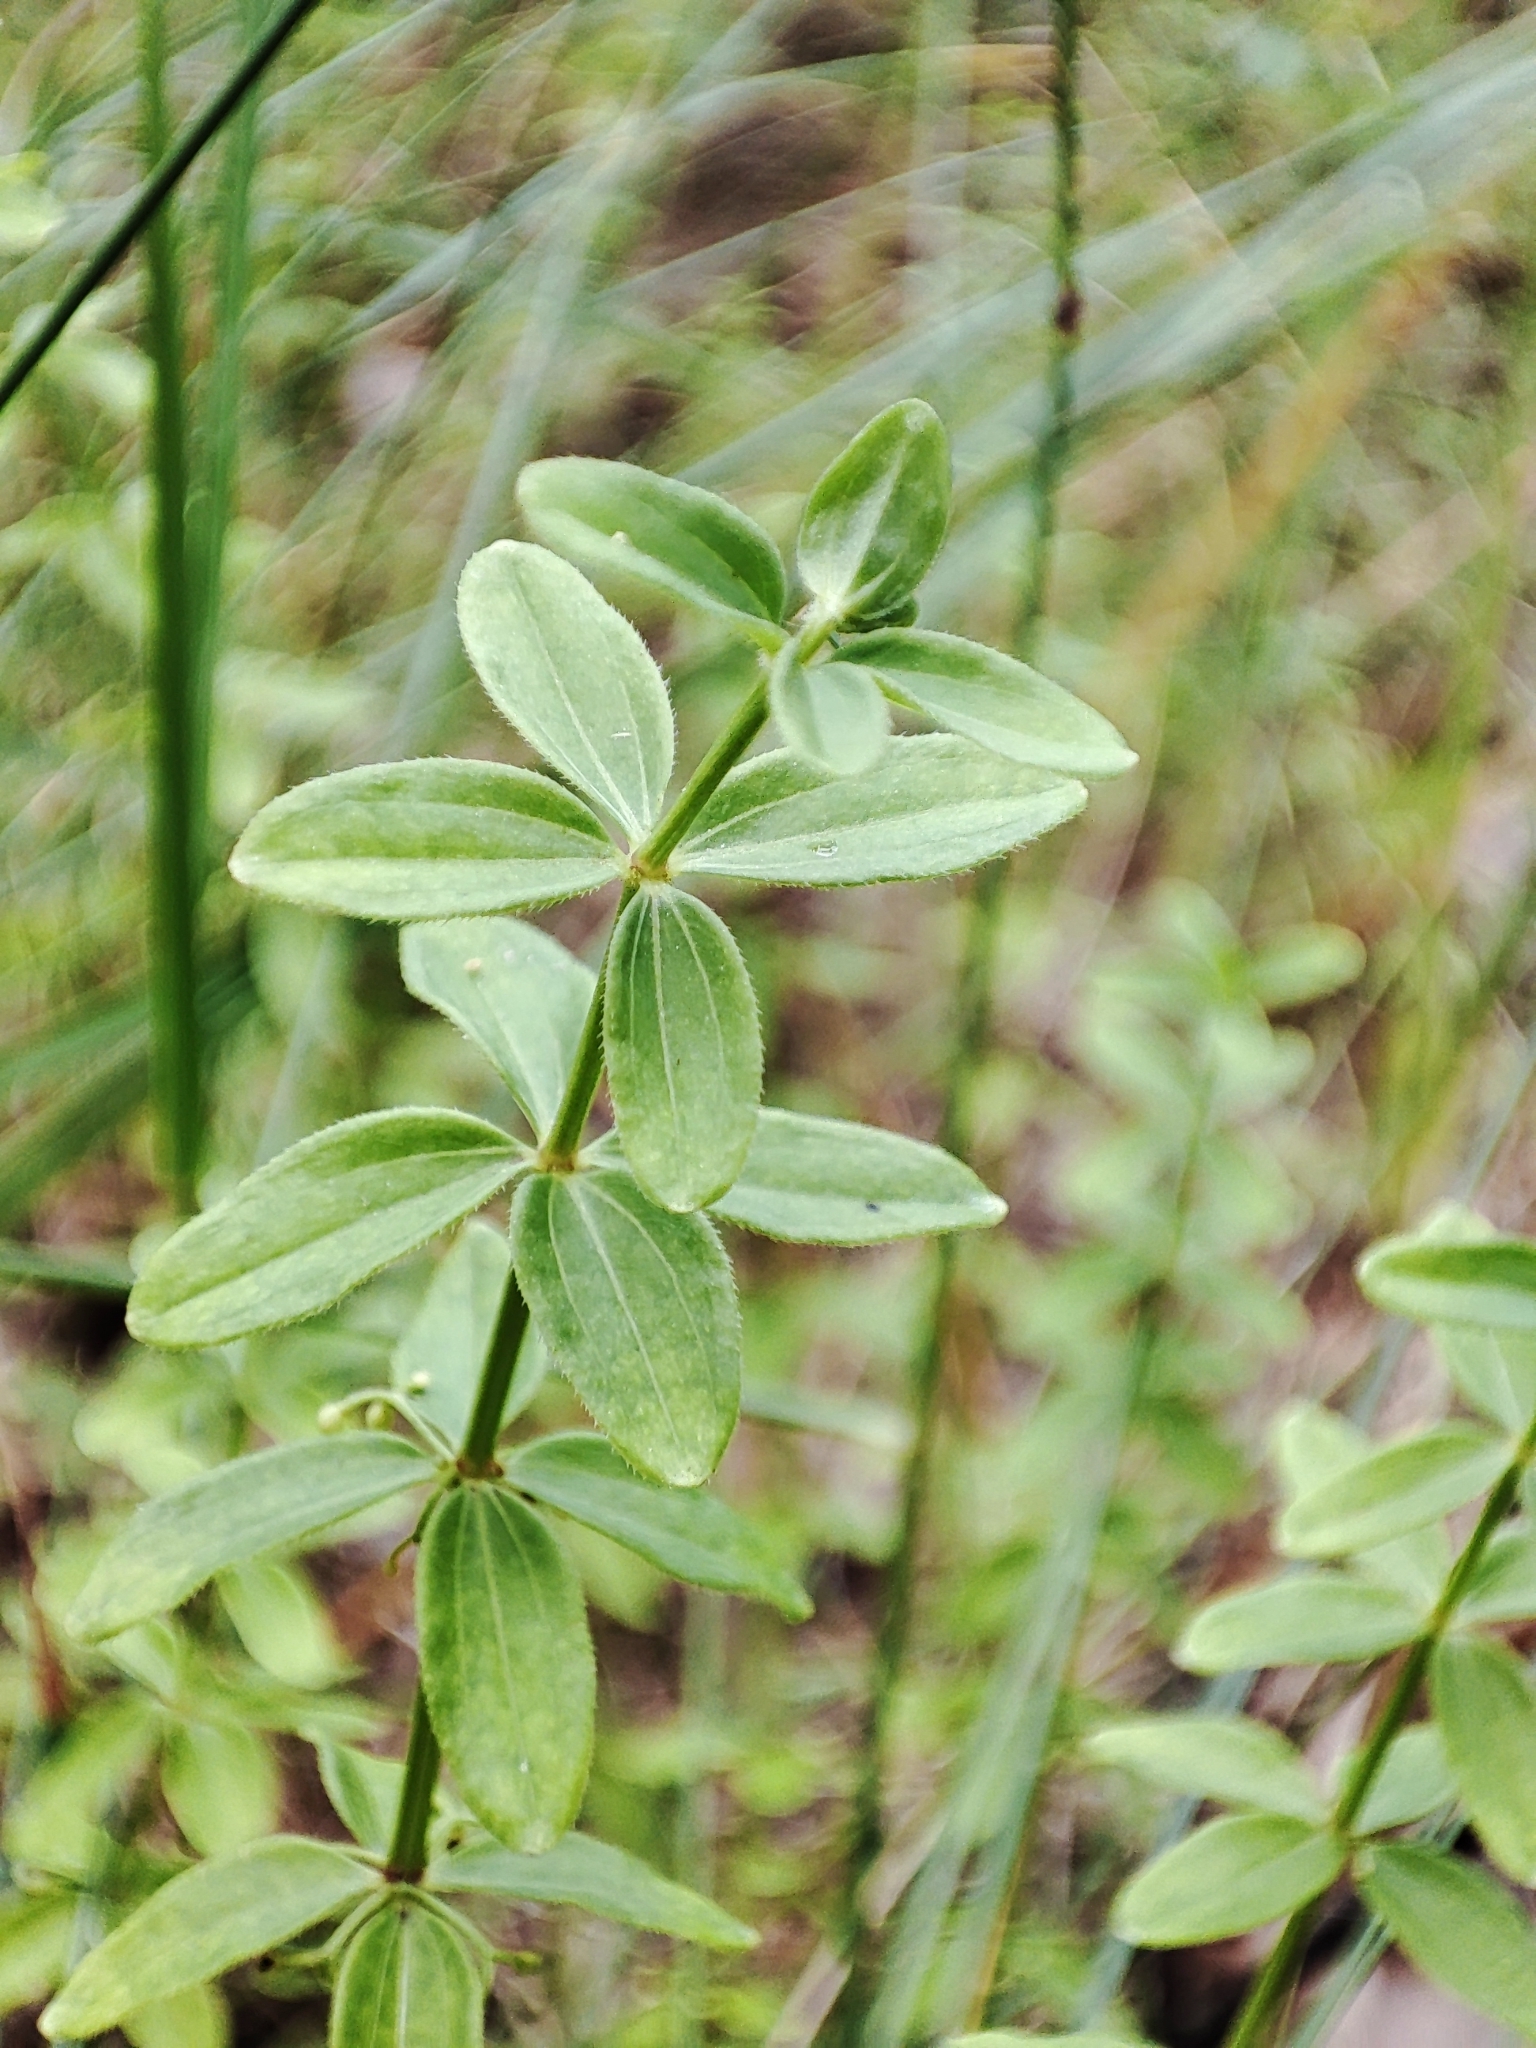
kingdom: Plantae
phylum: Tracheophyta
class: Magnoliopsida
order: Gentianales
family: Rubiaceae
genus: Cruciata
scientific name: Cruciata glabra
